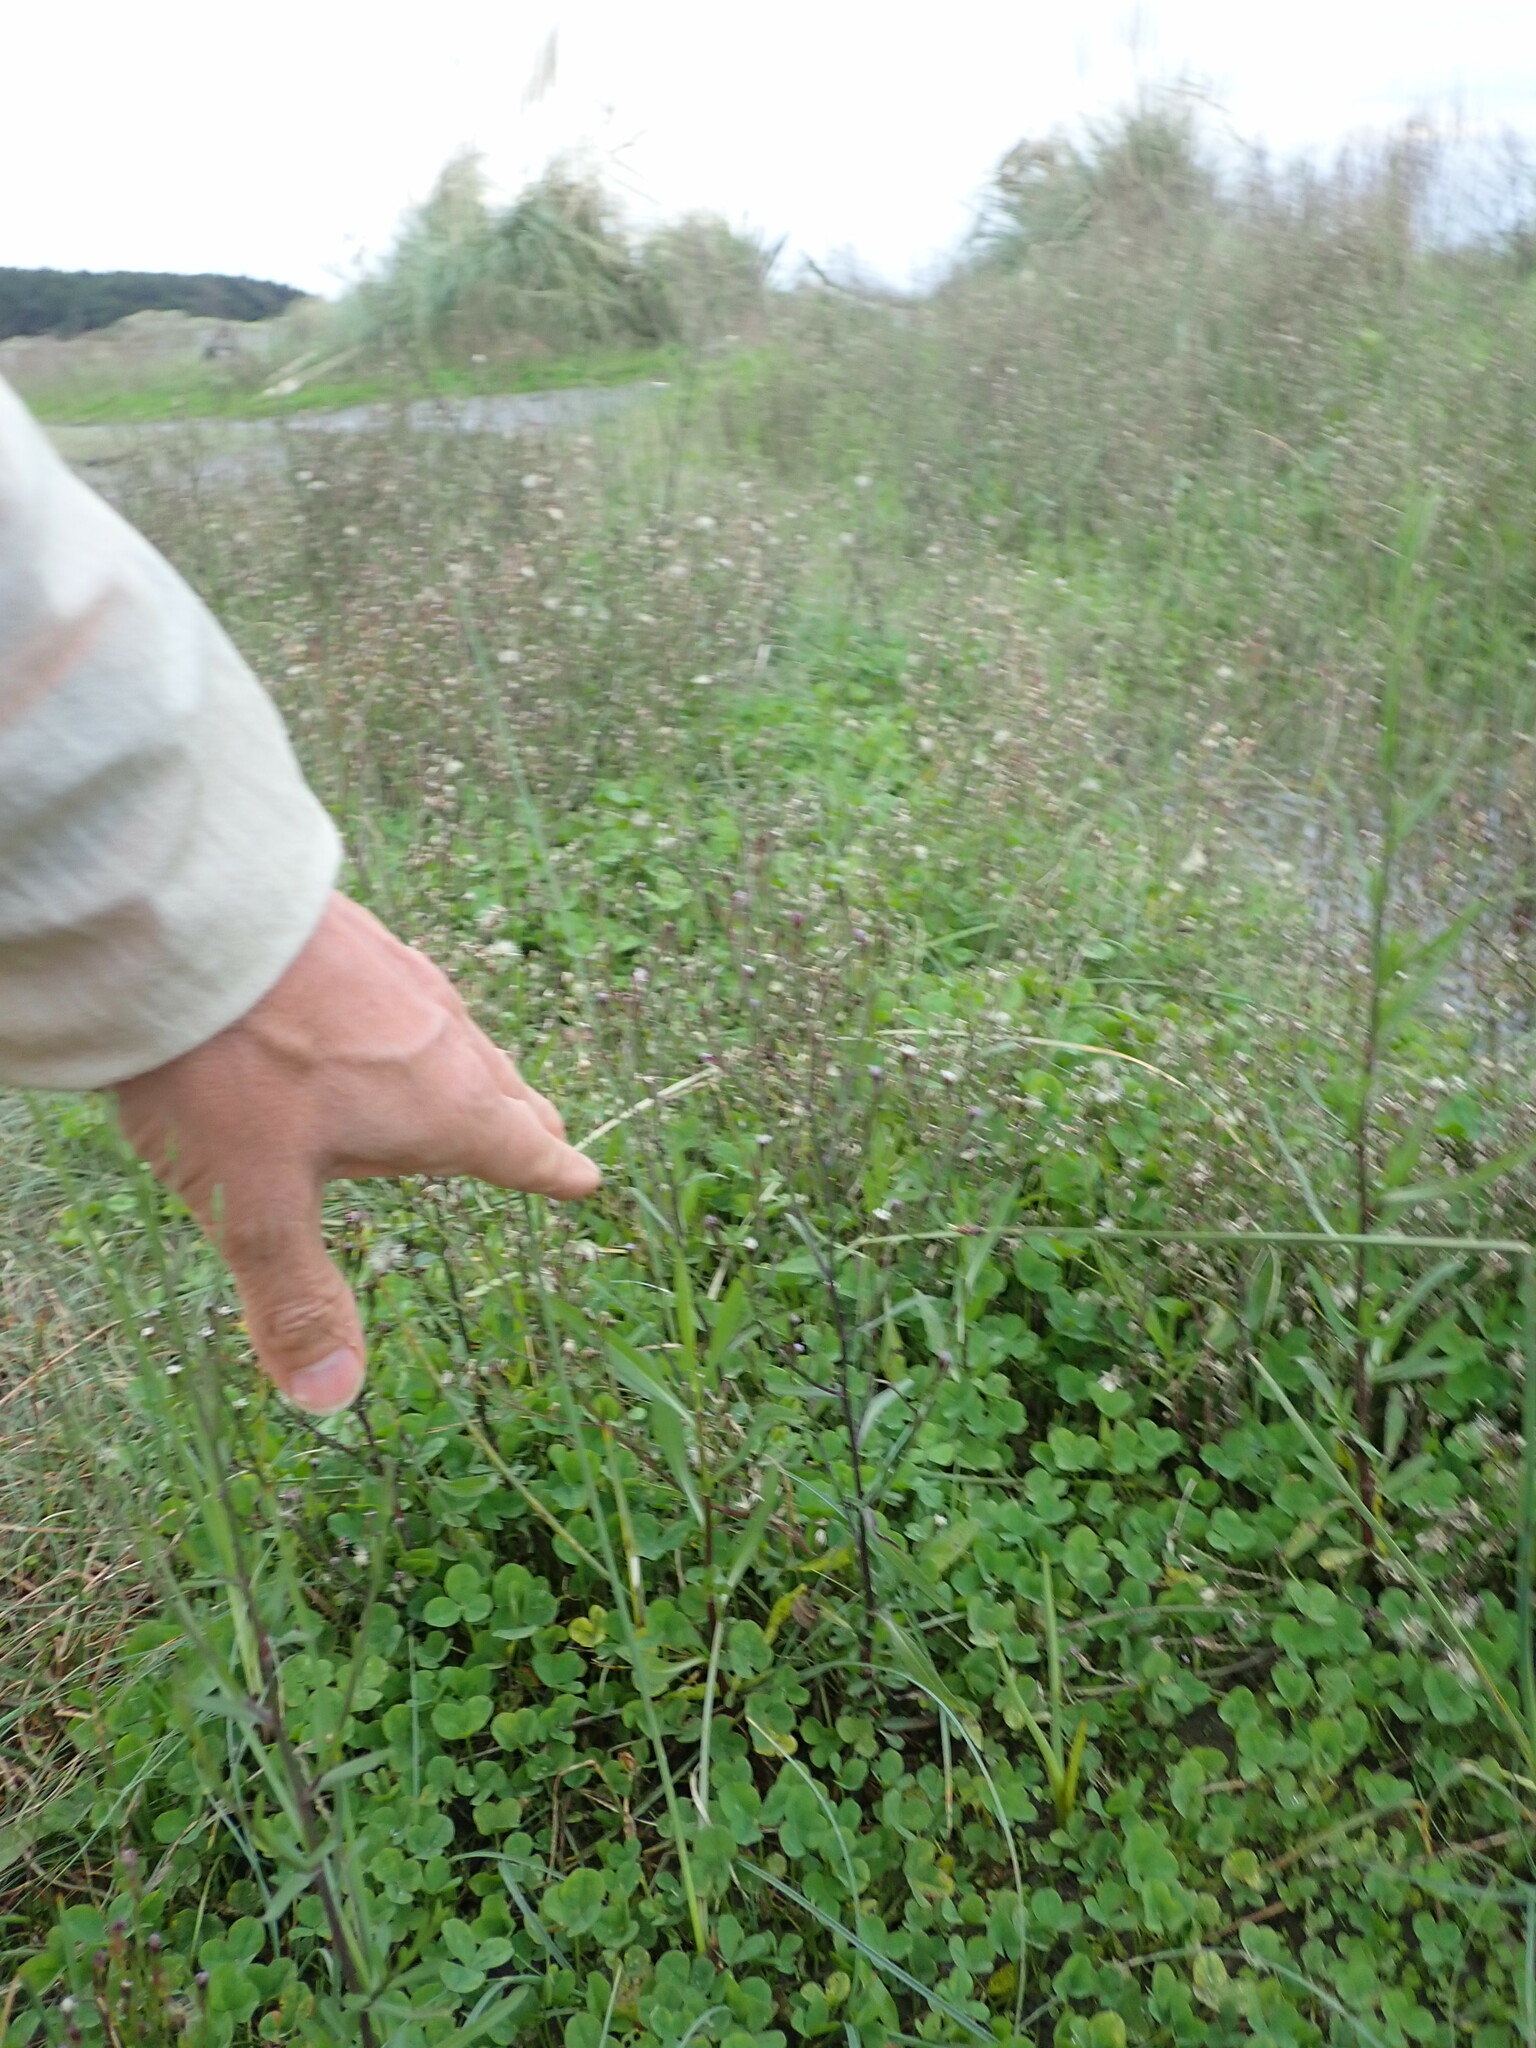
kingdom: Plantae
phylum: Tracheophyta
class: Magnoliopsida
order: Asterales
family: Asteraceae
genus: Symphyotrichum
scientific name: Symphyotrichum subulatum
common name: Annual saltmarsh aster
